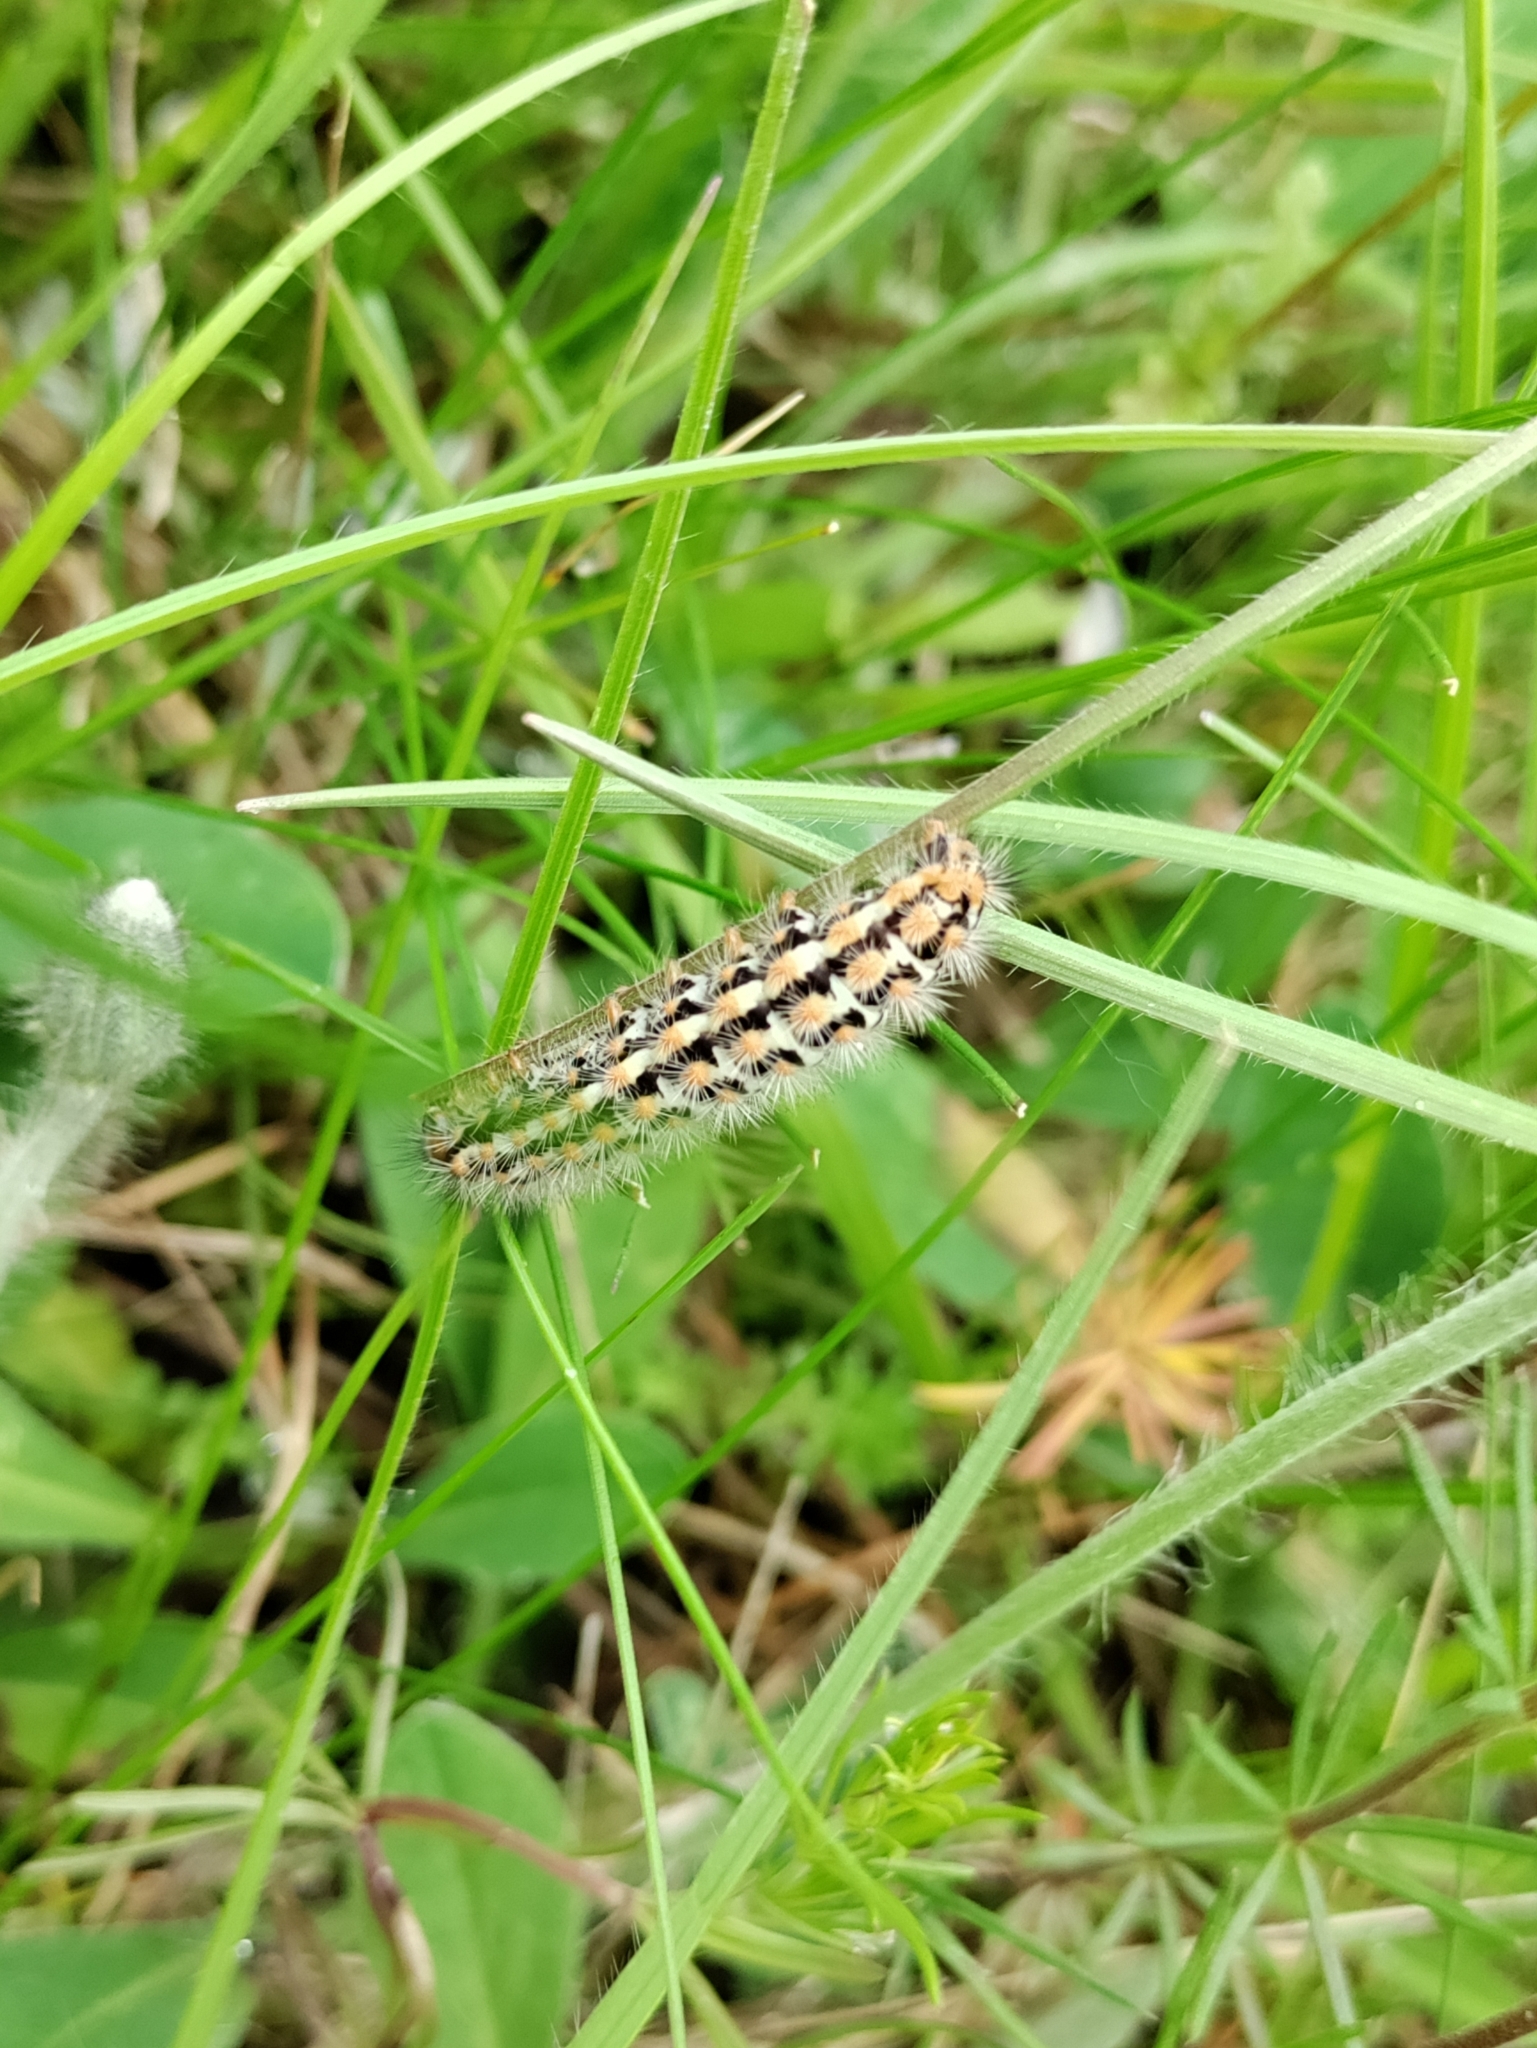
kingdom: Animalia
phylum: Arthropoda
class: Insecta
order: Lepidoptera
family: Erebidae
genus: Penthophera
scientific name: Penthophera morio
